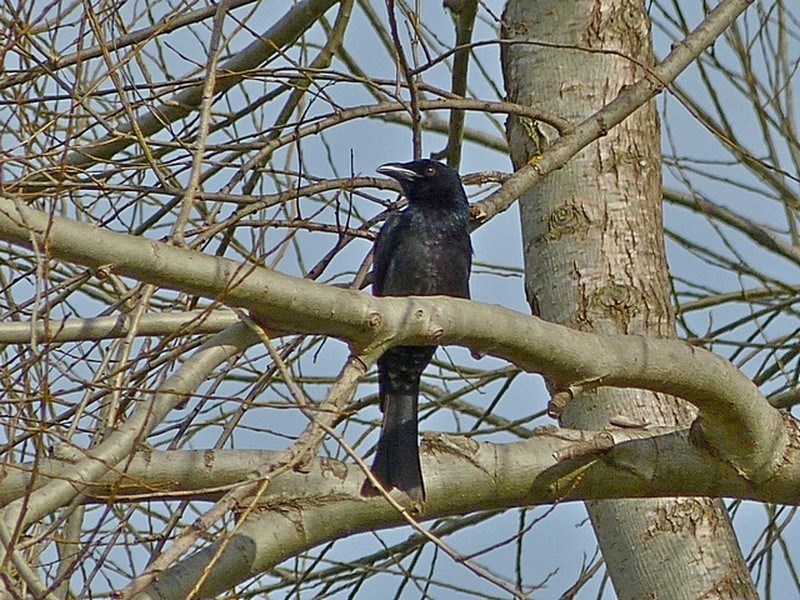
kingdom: Animalia
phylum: Chordata
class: Aves
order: Passeriformes
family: Dicruridae
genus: Dicrurus
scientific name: Dicrurus bracteatus
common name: Spangled drongo
